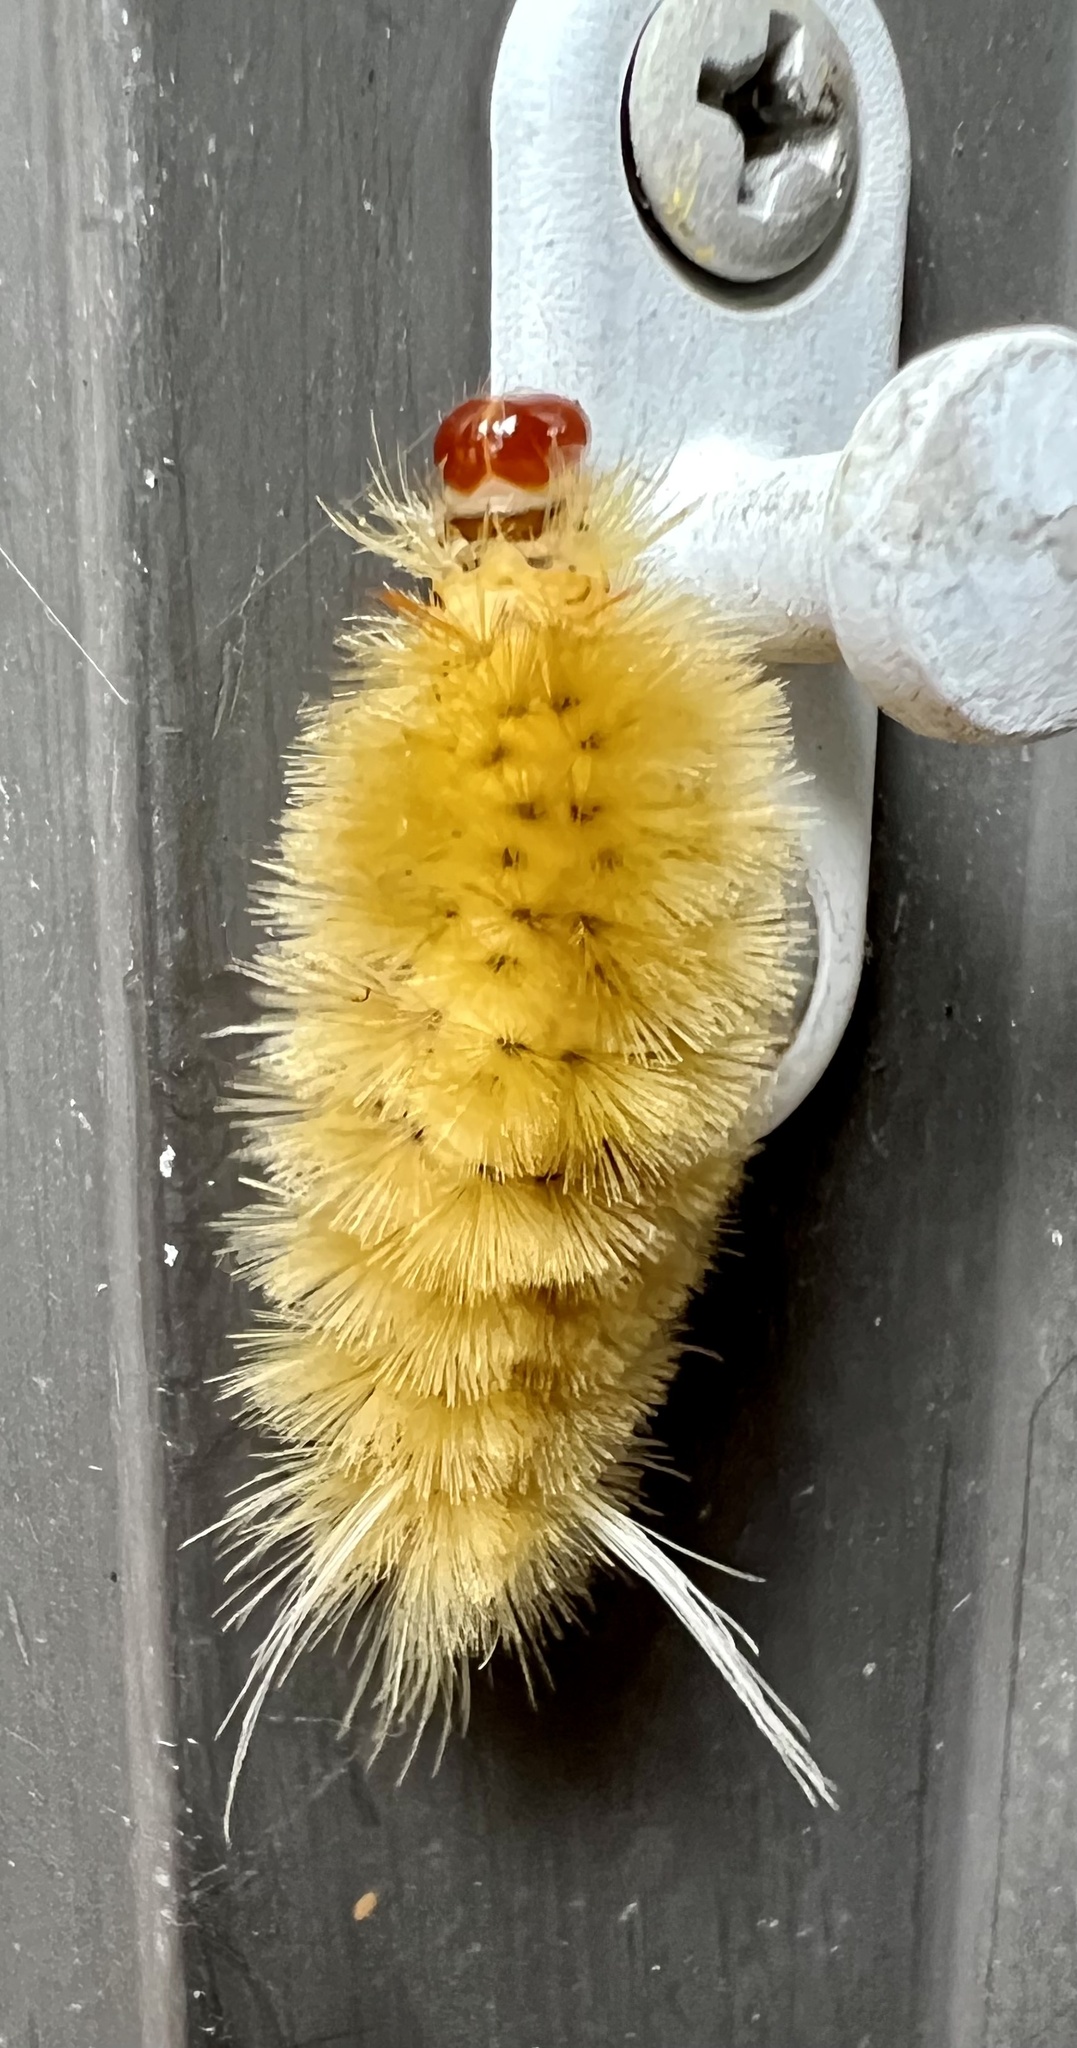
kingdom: Animalia
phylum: Arthropoda
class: Insecta
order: Lepidoptera
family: Erebidae
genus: Halysidota
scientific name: Halysidota harrisii
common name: Sycamore tussock moth
